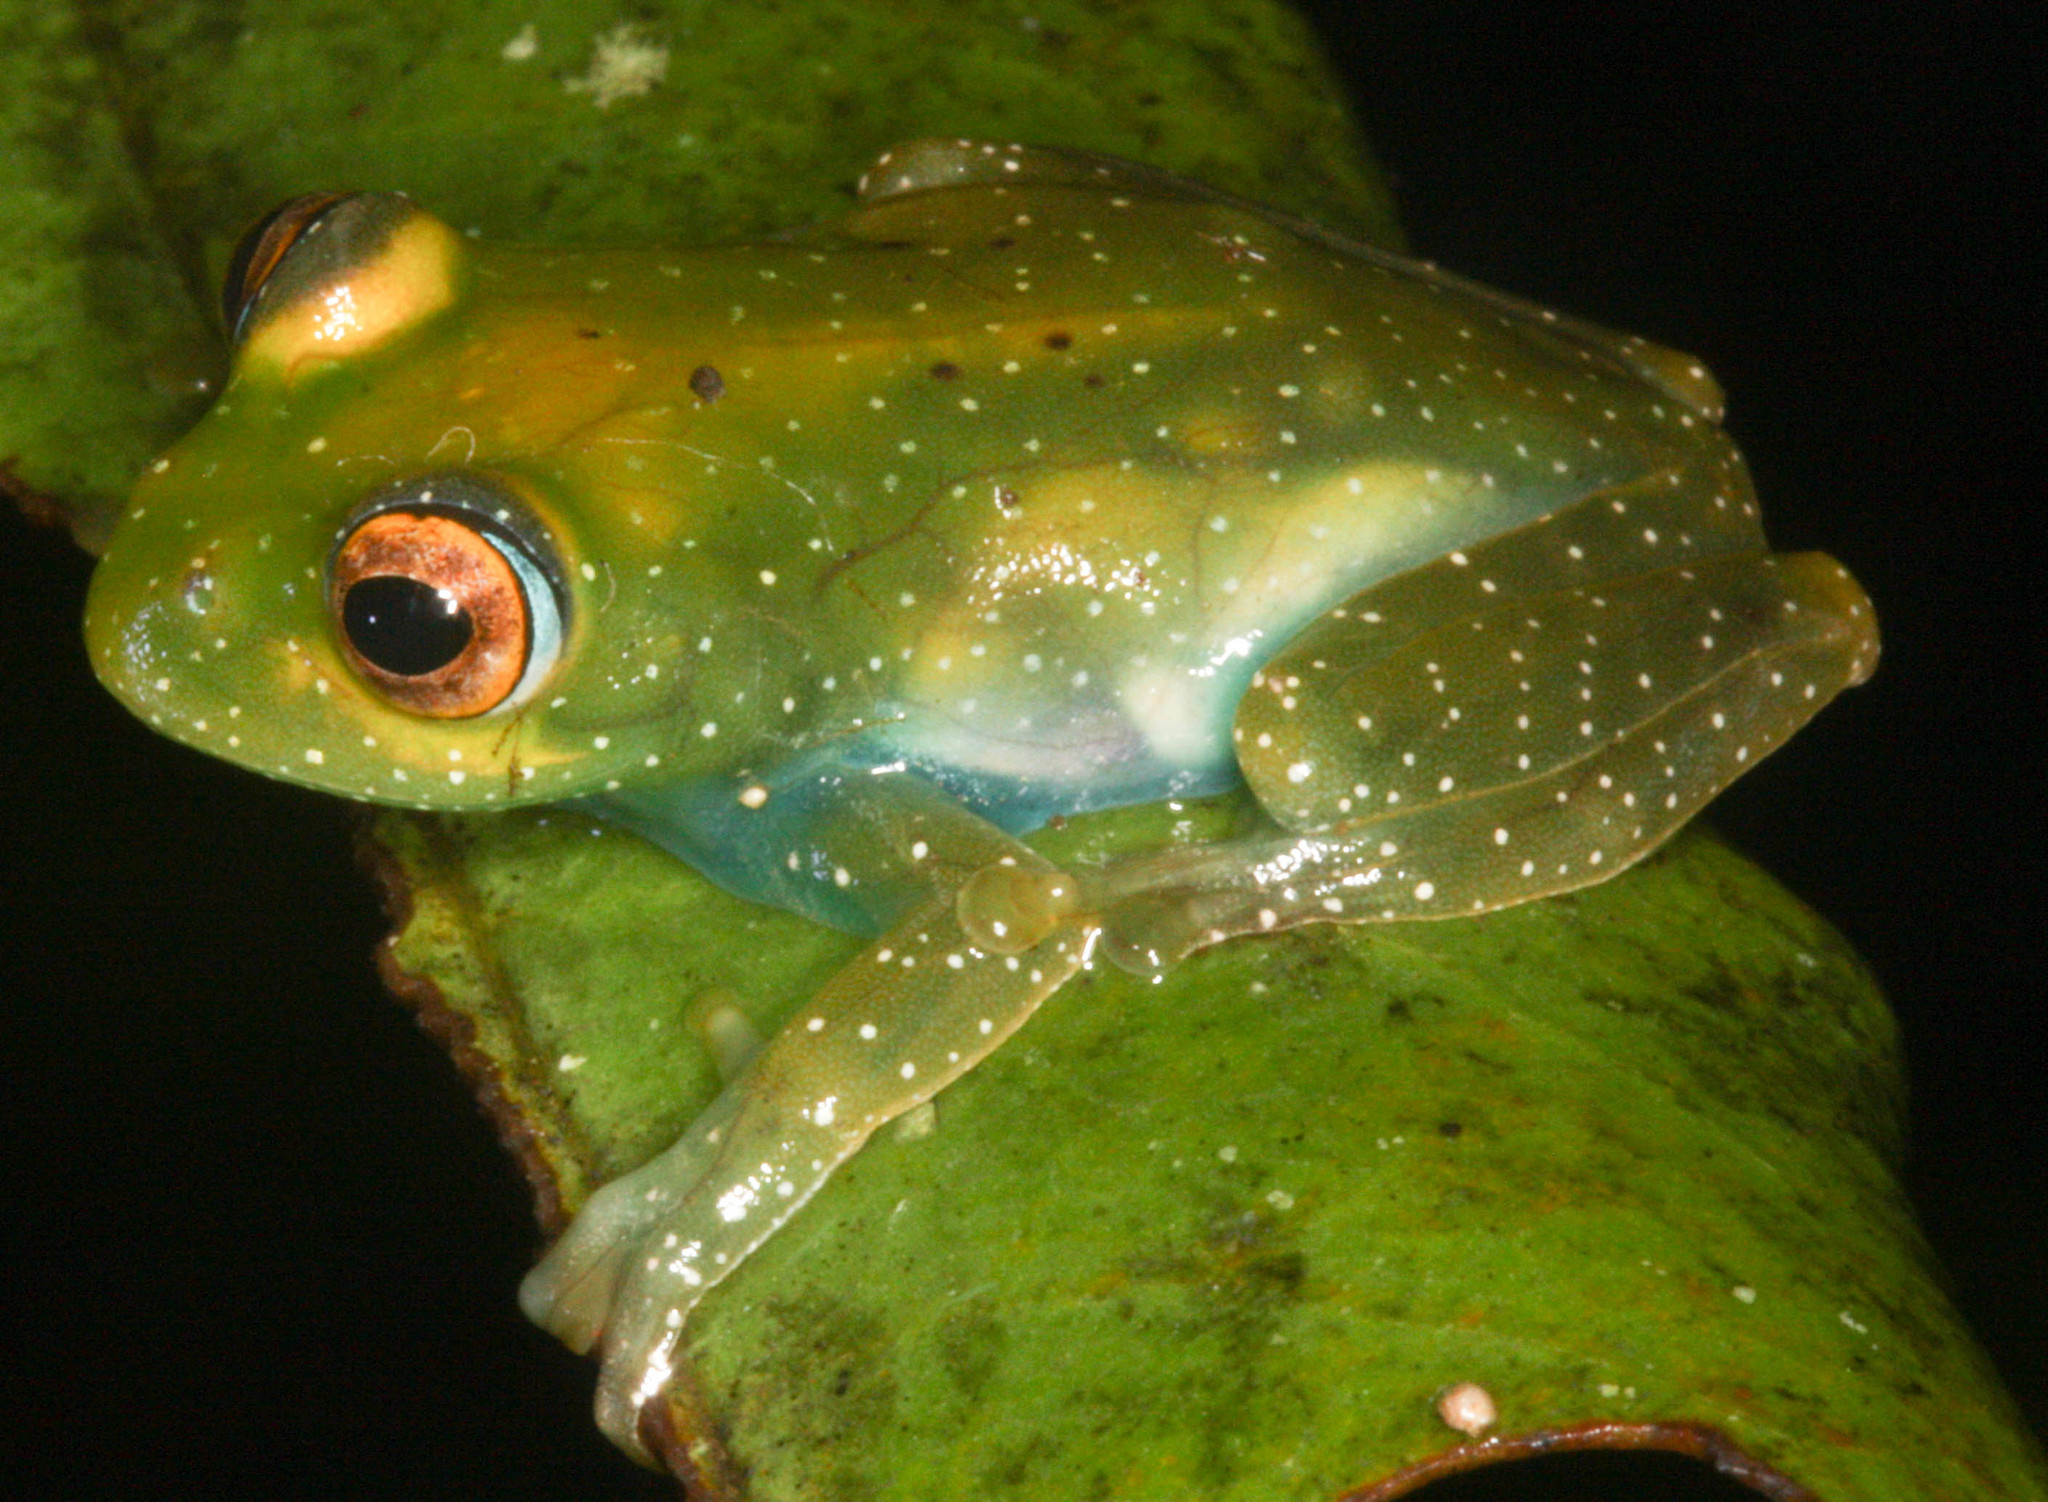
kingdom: Animalia
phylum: Chordata
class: Amphibia
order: Anura
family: Mantellidae
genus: Boophis
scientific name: Boophis sibilans
